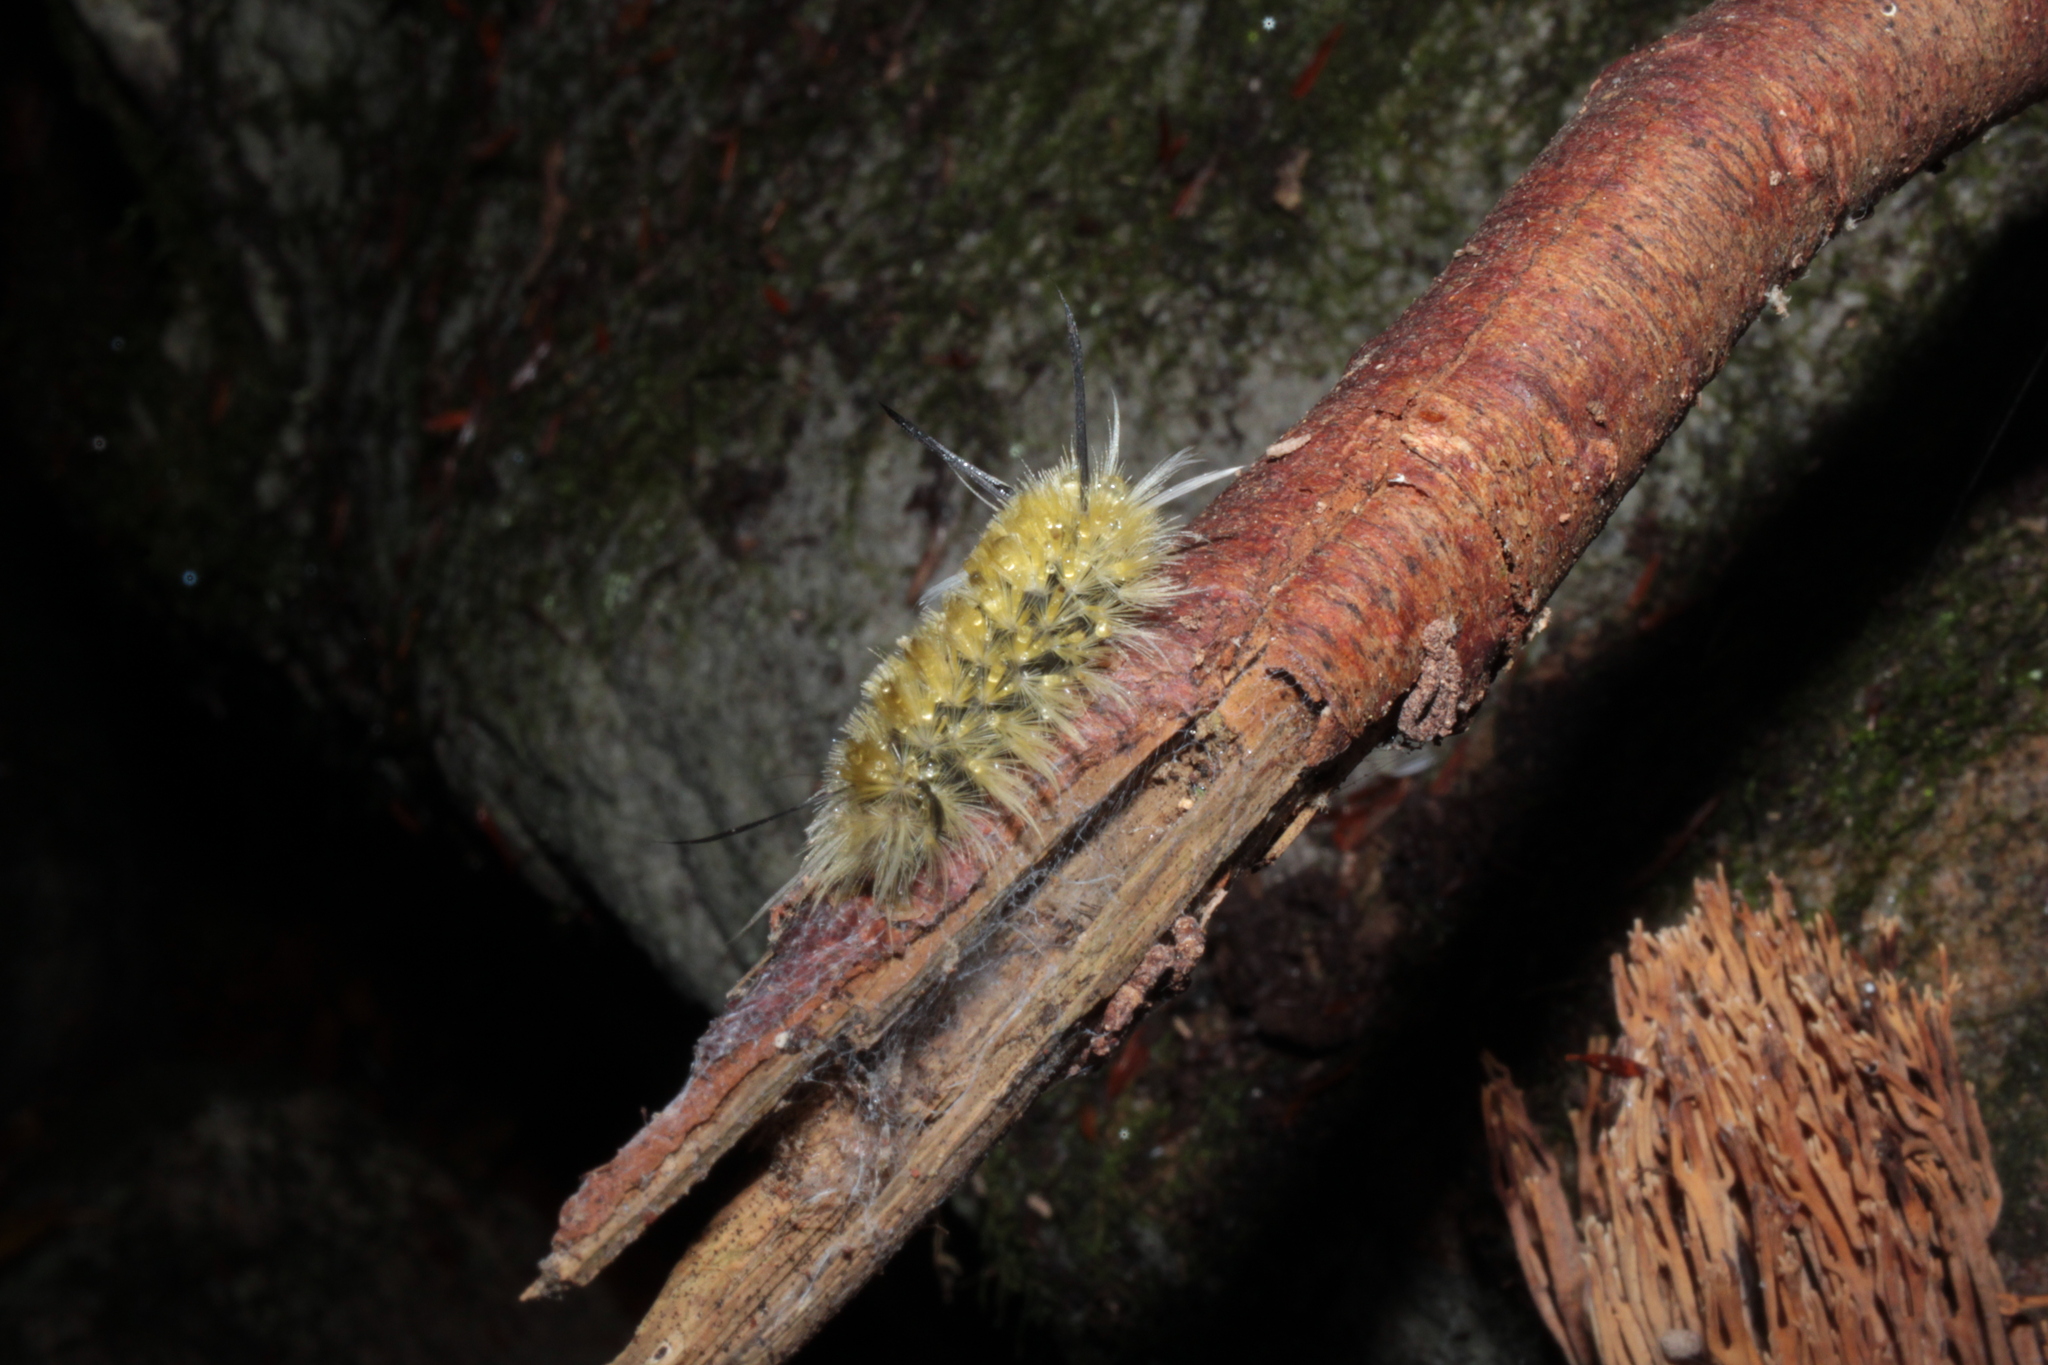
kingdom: Animalia
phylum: Arthropoda
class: Insecta
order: Lepidoptera
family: Erebidae
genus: Halysidota
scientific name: Halysidota tessellaris
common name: Banded tussock moth
